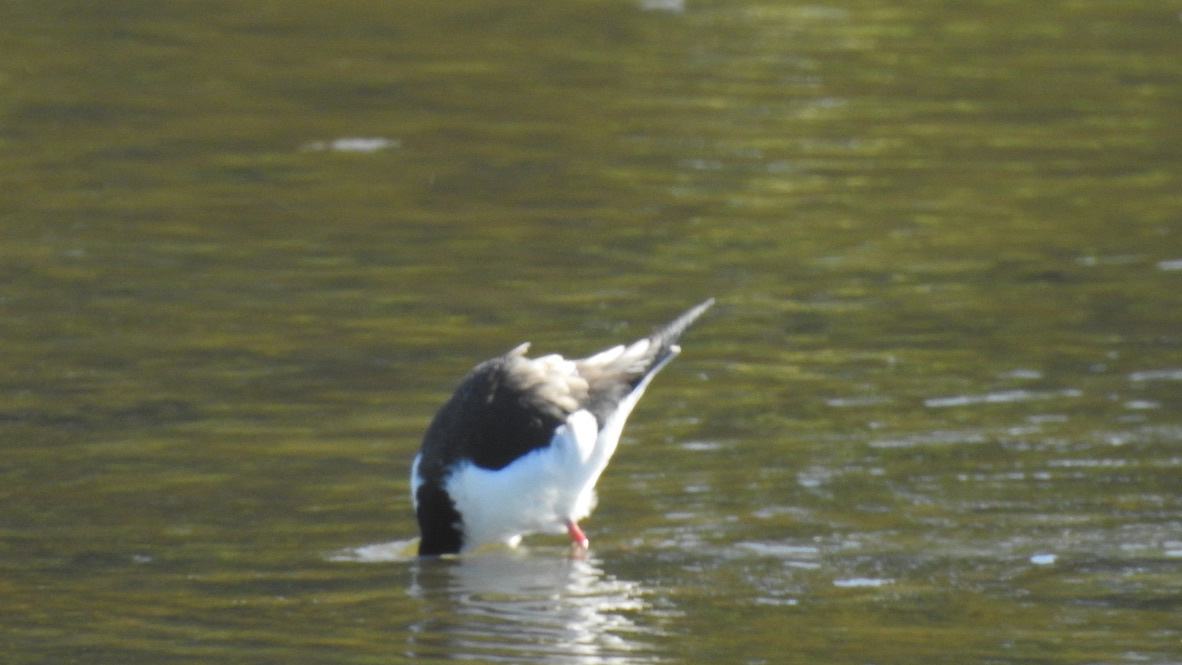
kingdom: Animalia
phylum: Chordata
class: Aves
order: Charadriiformes
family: Recurvirostridae
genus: Himantopus
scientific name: Himantopus mexicanus
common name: Black-necked stilt
